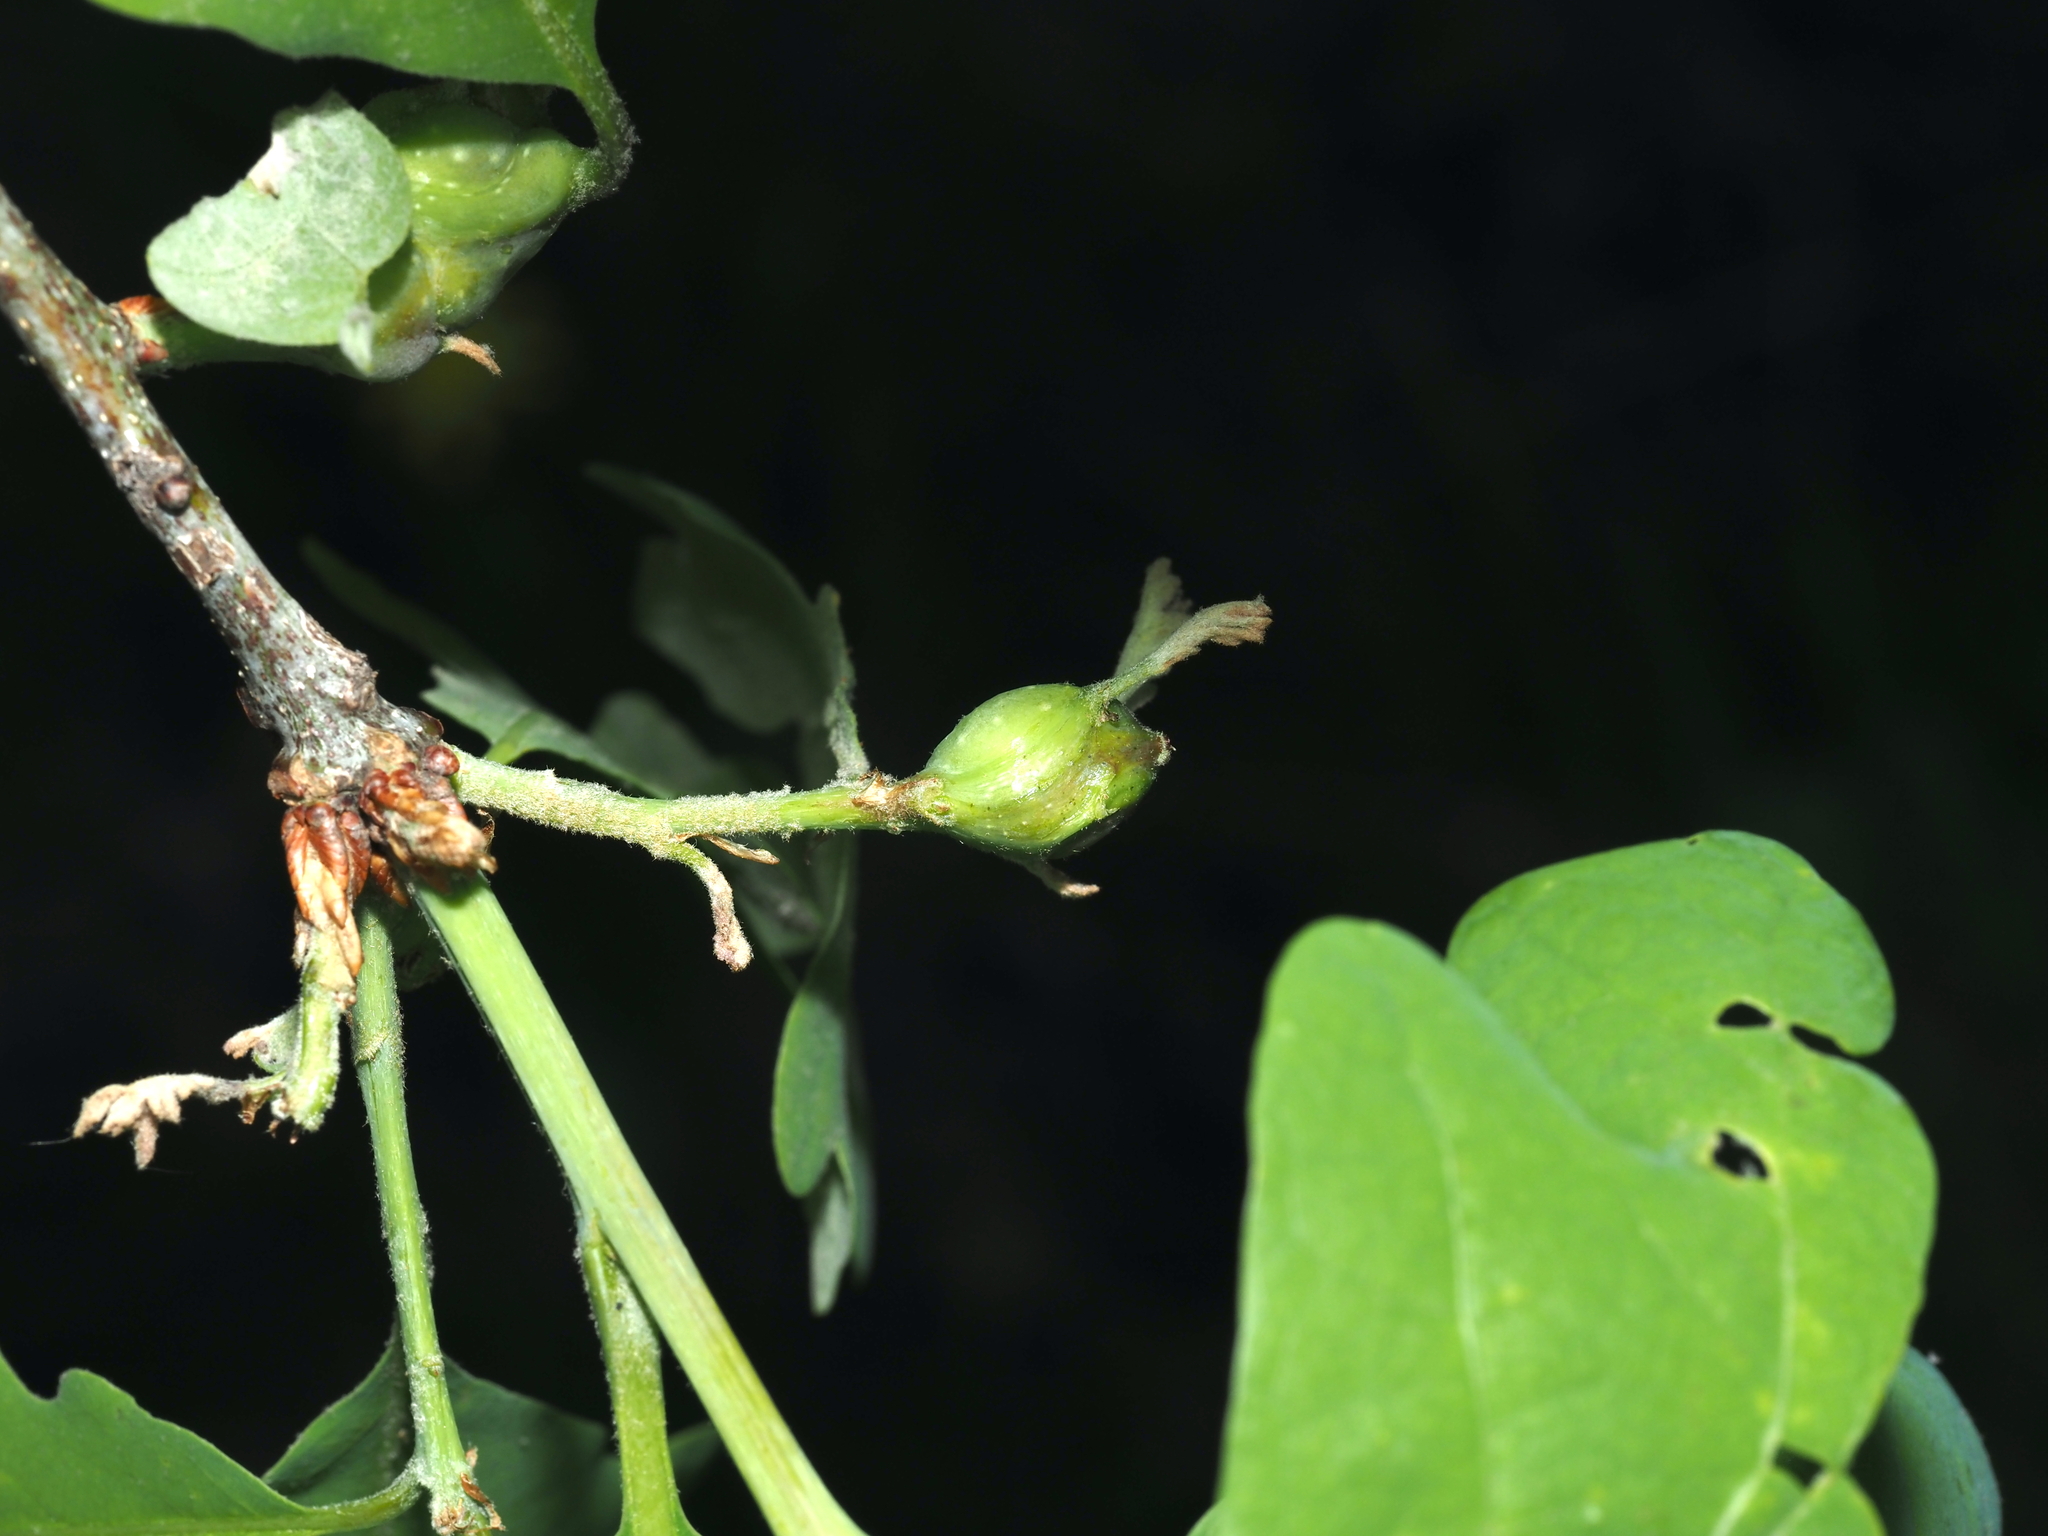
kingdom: Animalia
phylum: Arthropoda
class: Insecta
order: Hymenoptera
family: Cynipidae
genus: Callirhytis
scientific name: Callirhytis clavula
